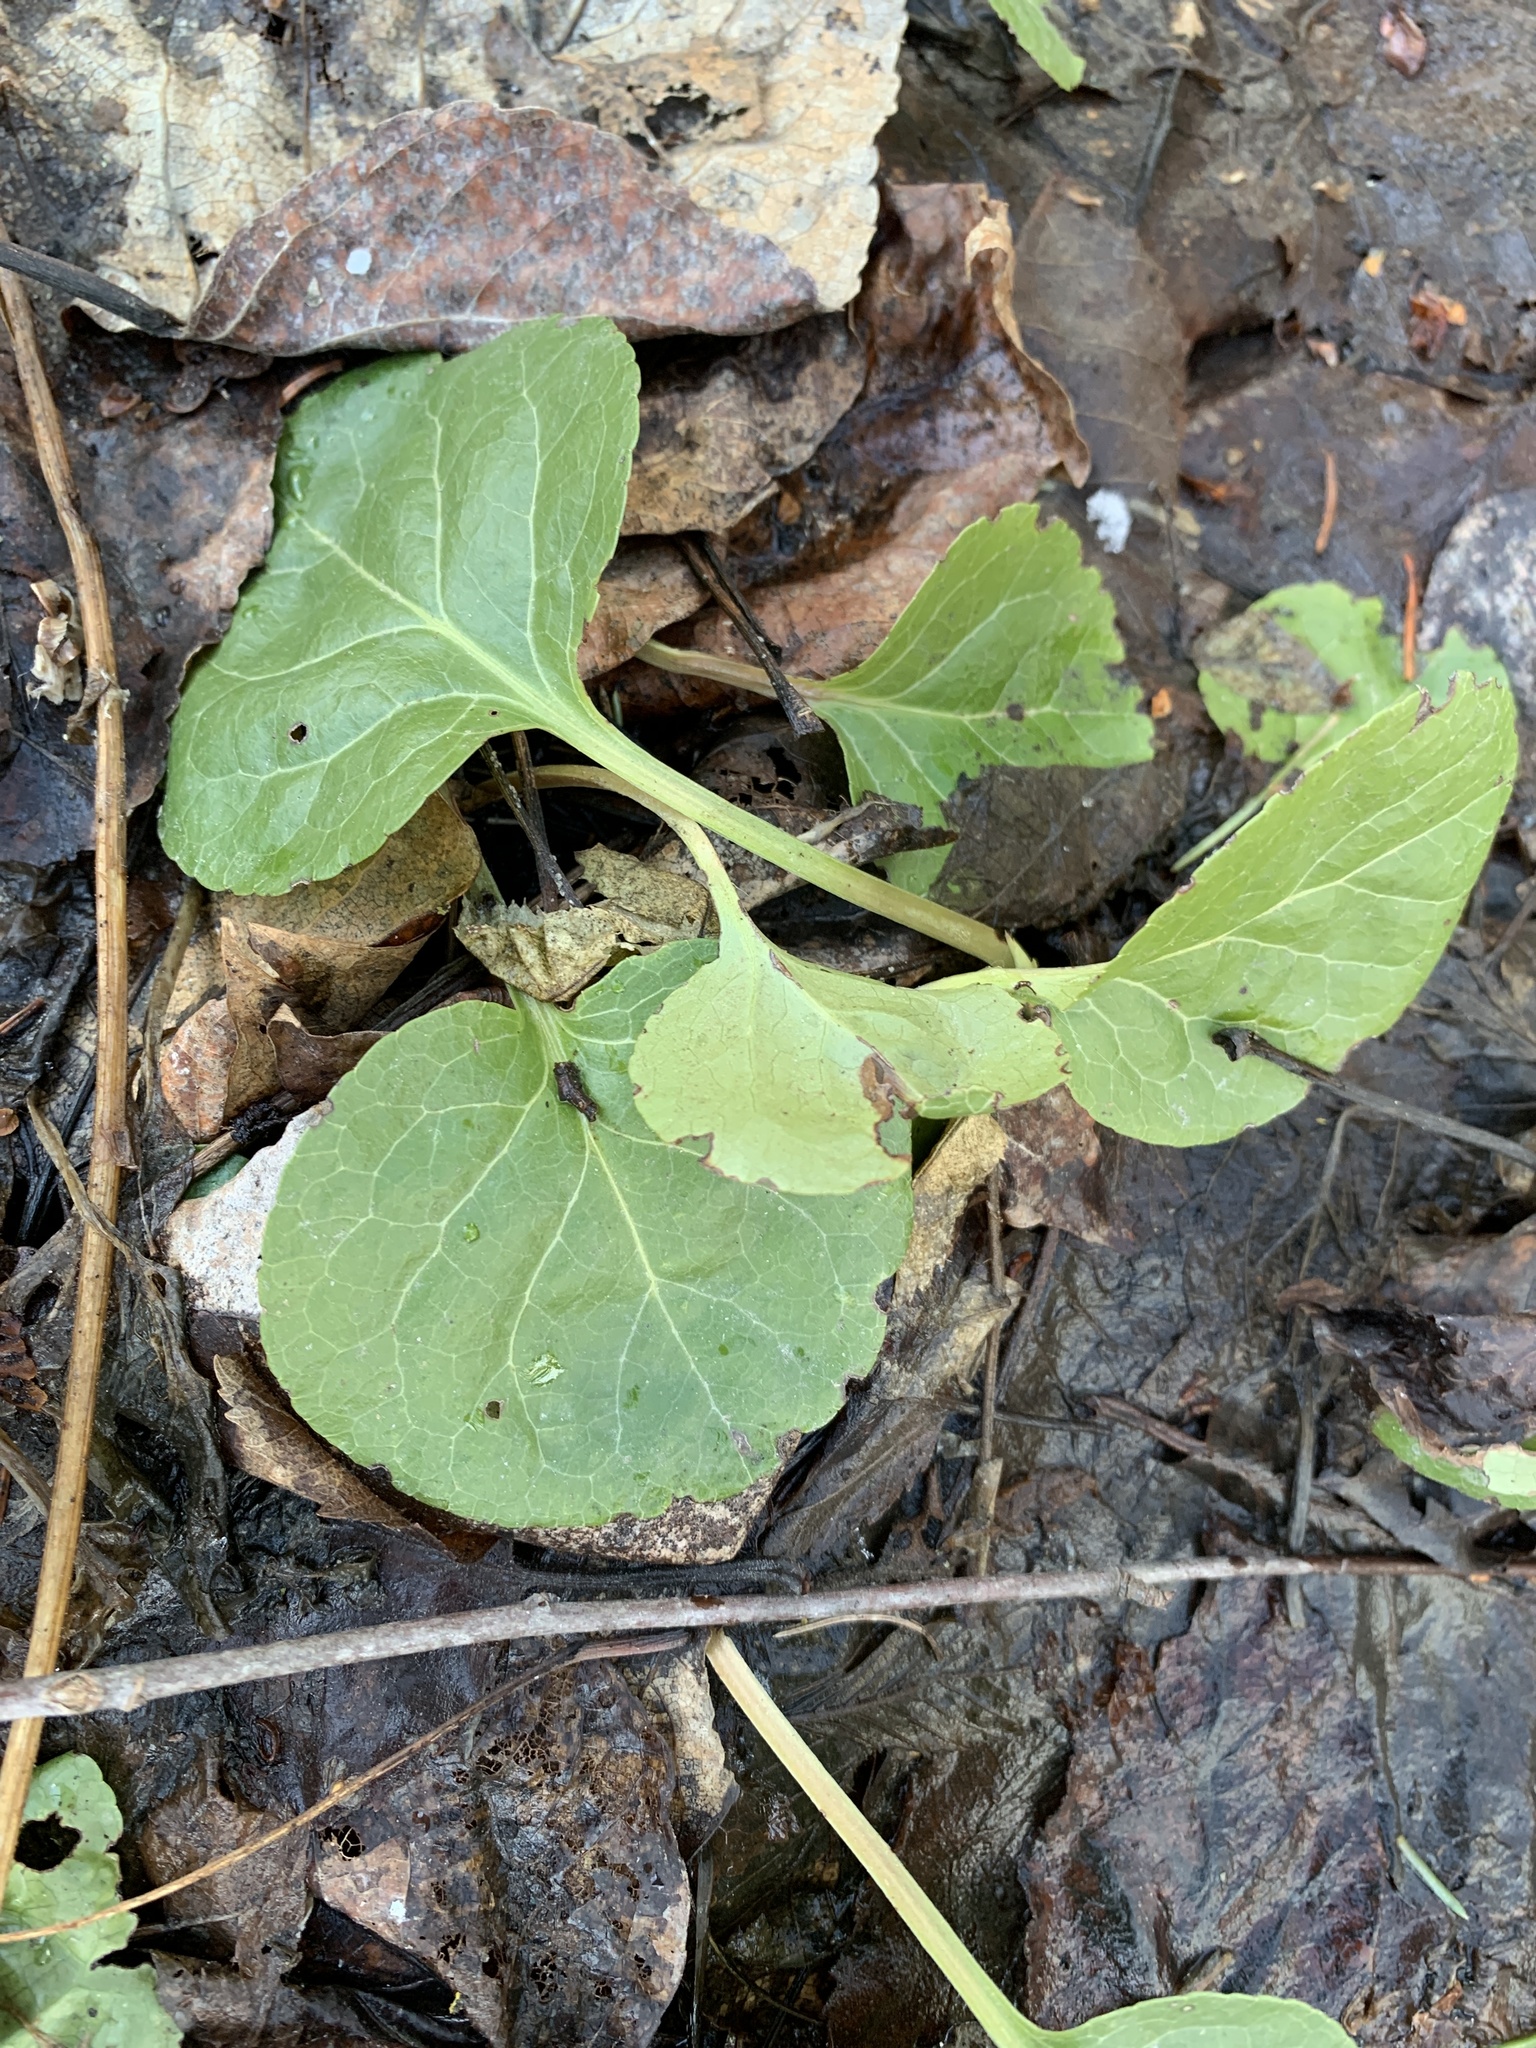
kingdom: Plantae
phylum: Tracheophyta
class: Magnoliopsida
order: Ericales
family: Ericaceae
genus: Pyrola
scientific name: Pyrola asarifolia
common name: Bog wintergreen
